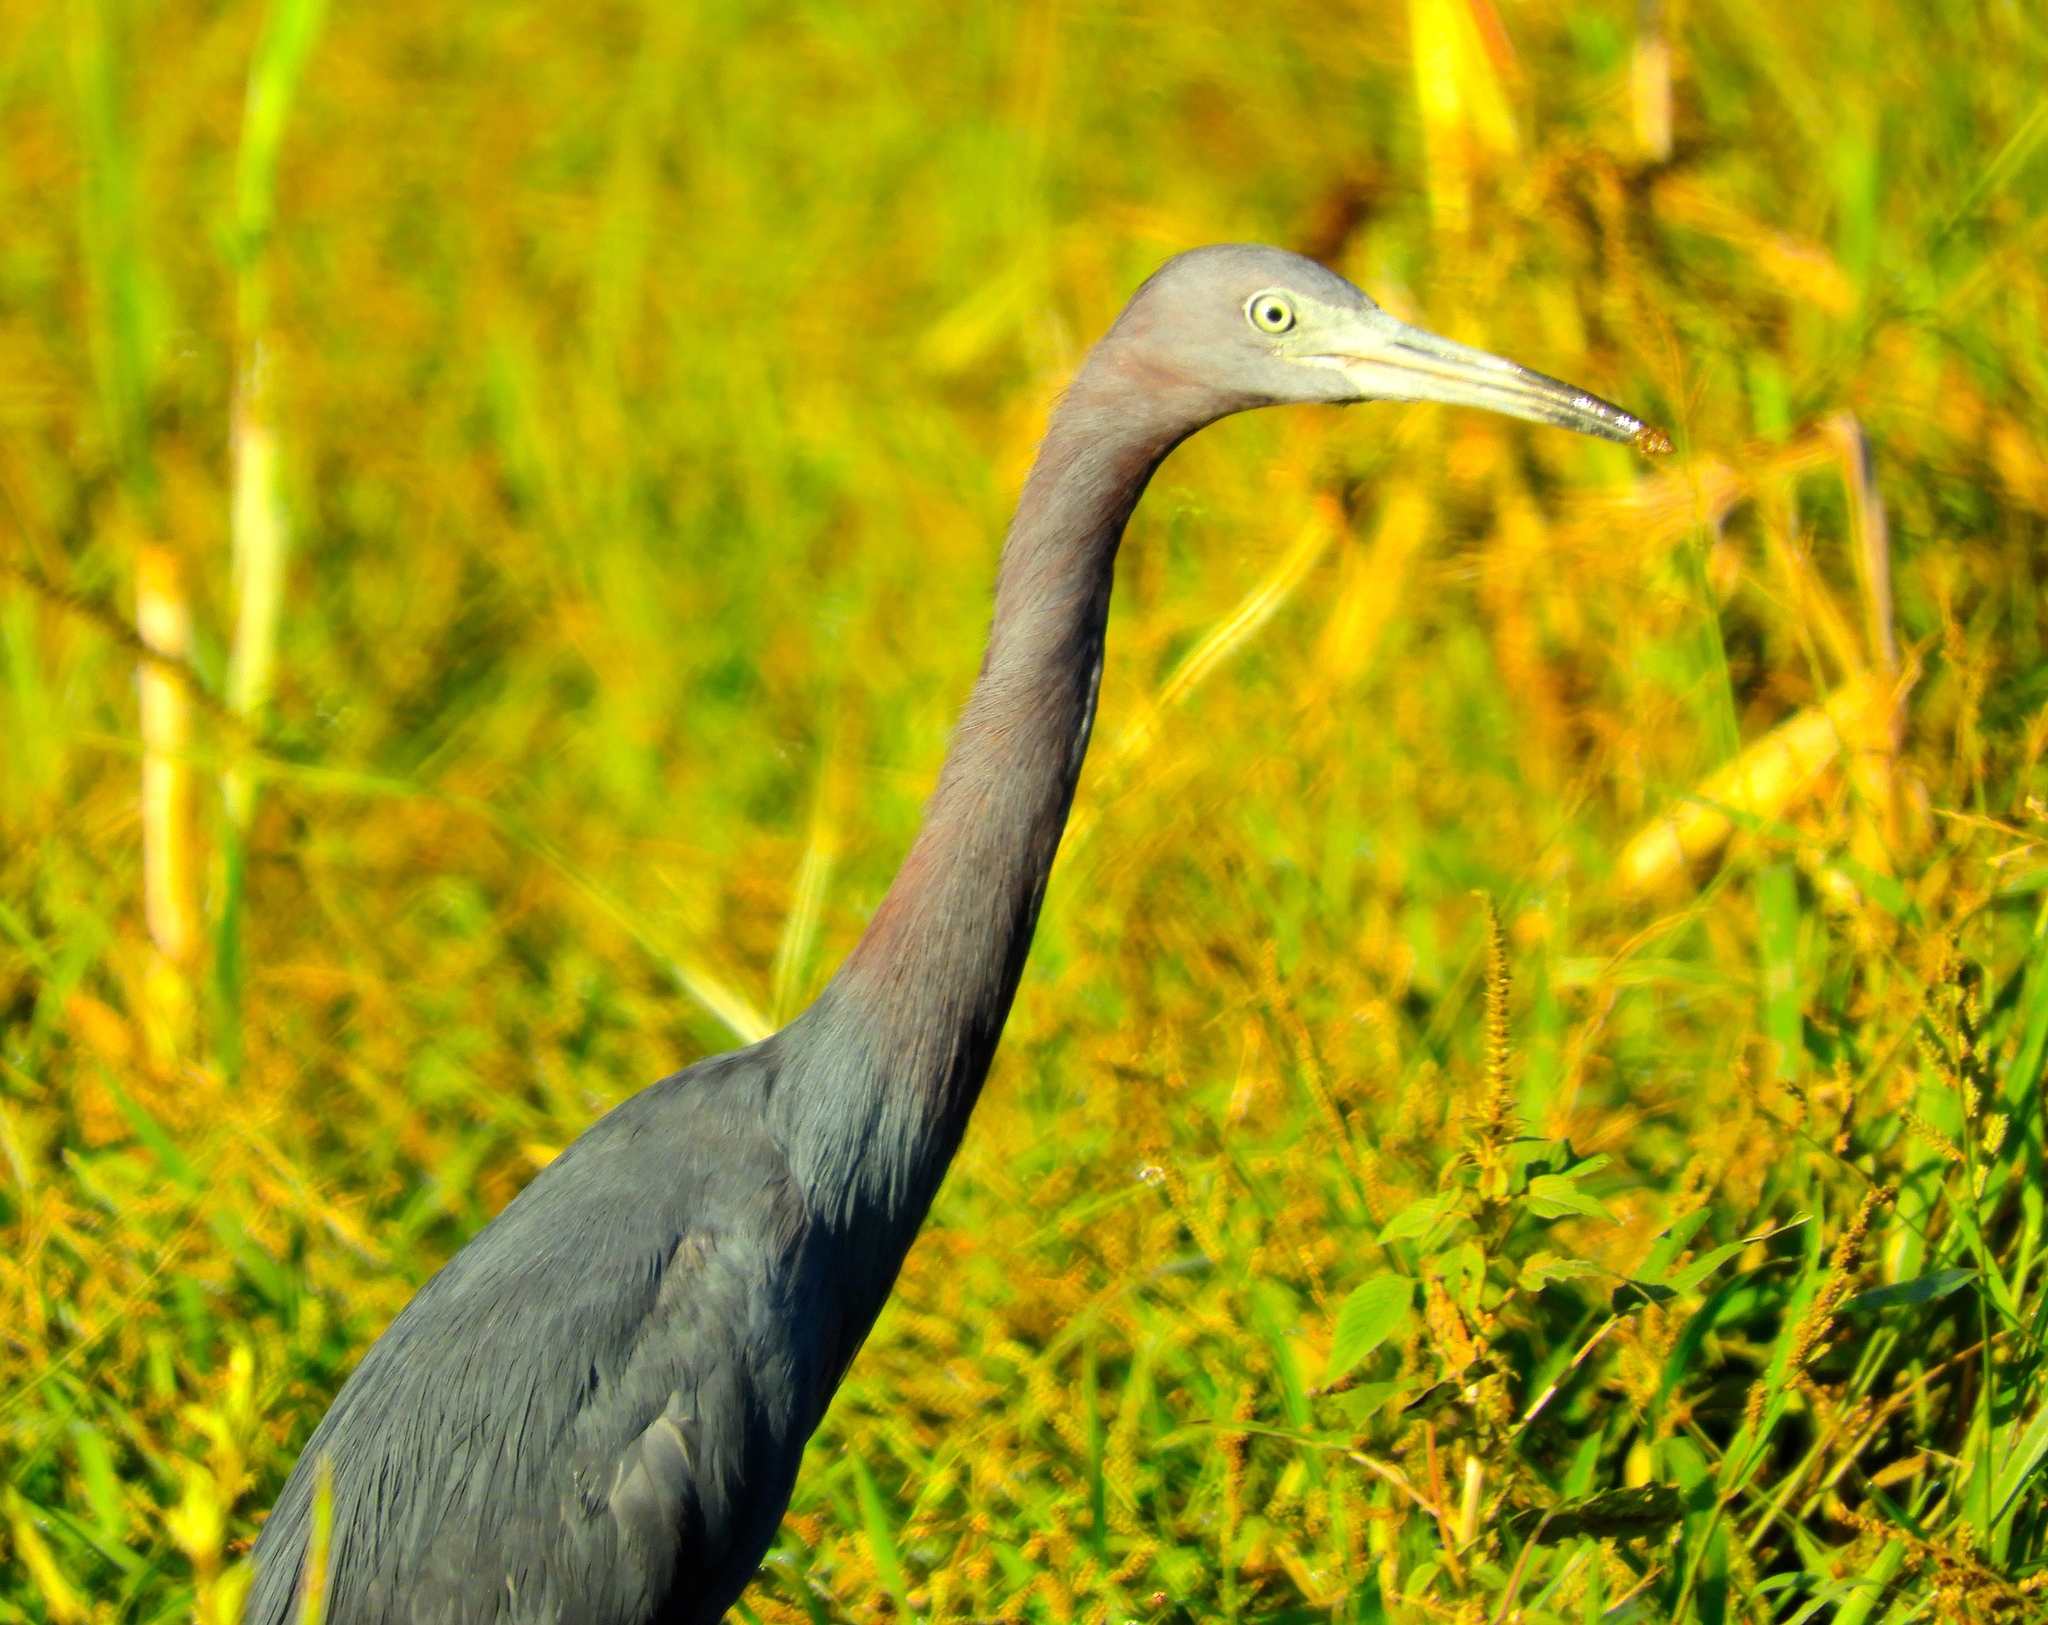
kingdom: Animalia
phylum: Chordata
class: Aves
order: Pelecaniformes
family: Ardeidae
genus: Egretta
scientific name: Egretta caerulea
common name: Little blue heron
